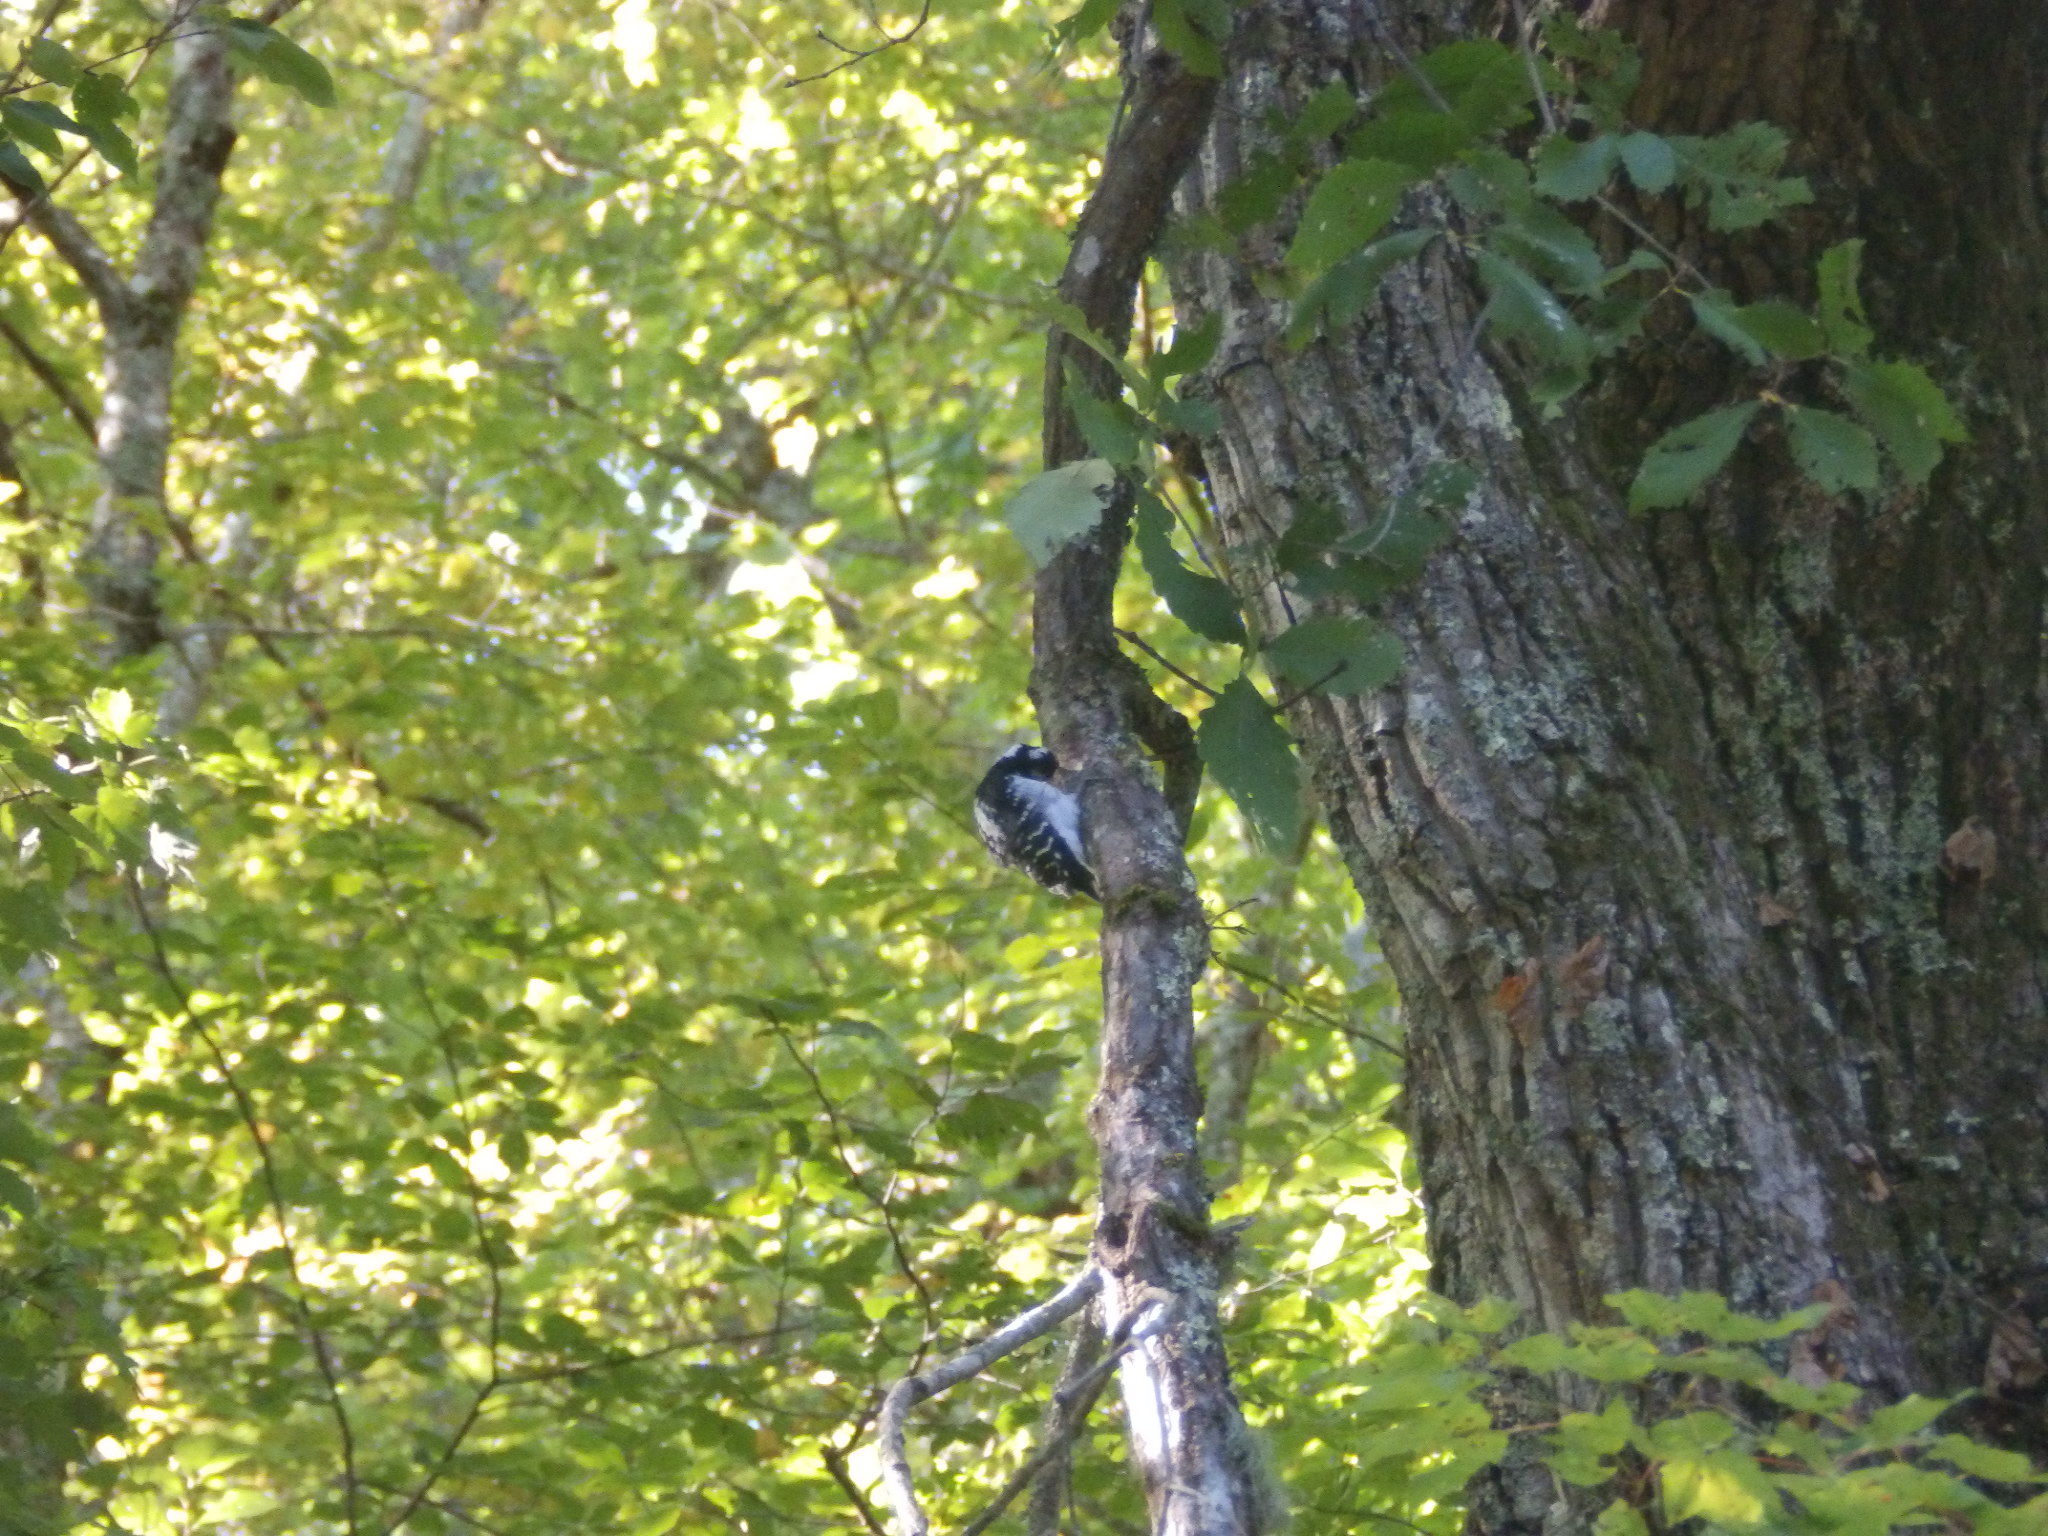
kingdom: Animalia
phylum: Chordata
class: Aves
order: Piciformes
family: Picidae
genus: Dryobates
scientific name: Dryobates pubescens
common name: Downy woodpecker
